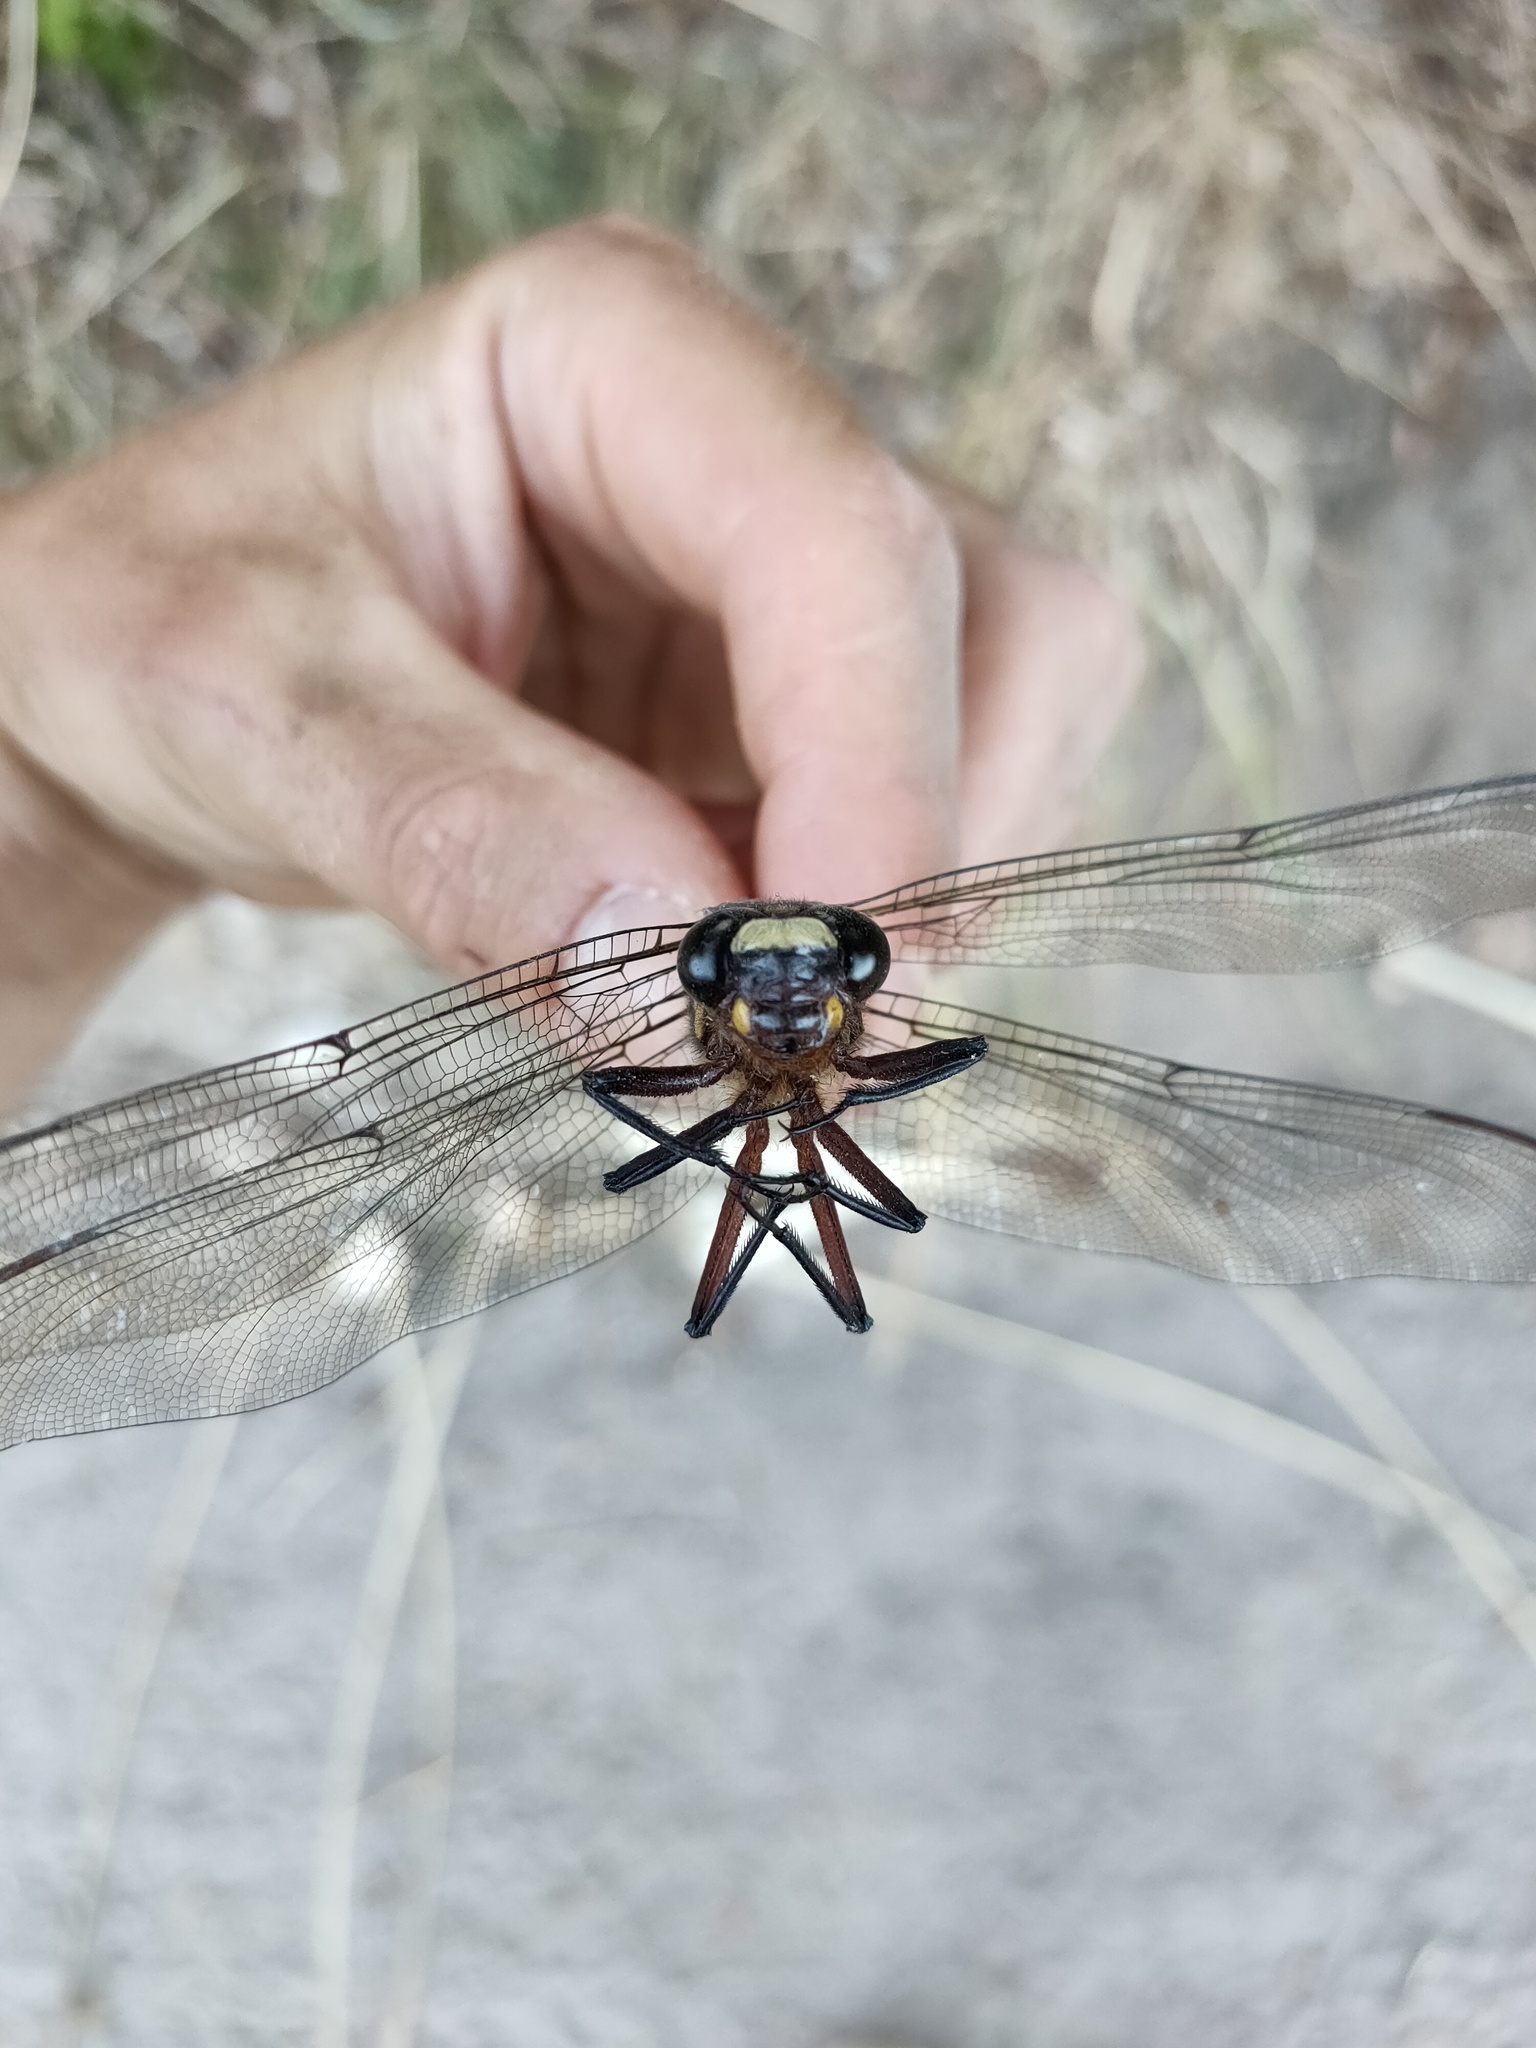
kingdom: Animalia
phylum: Arthropoda
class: Insecta
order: Odonata
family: Petaluridae
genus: Uropetala
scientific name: Uropetala carovei
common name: Bush giant dragonfly
